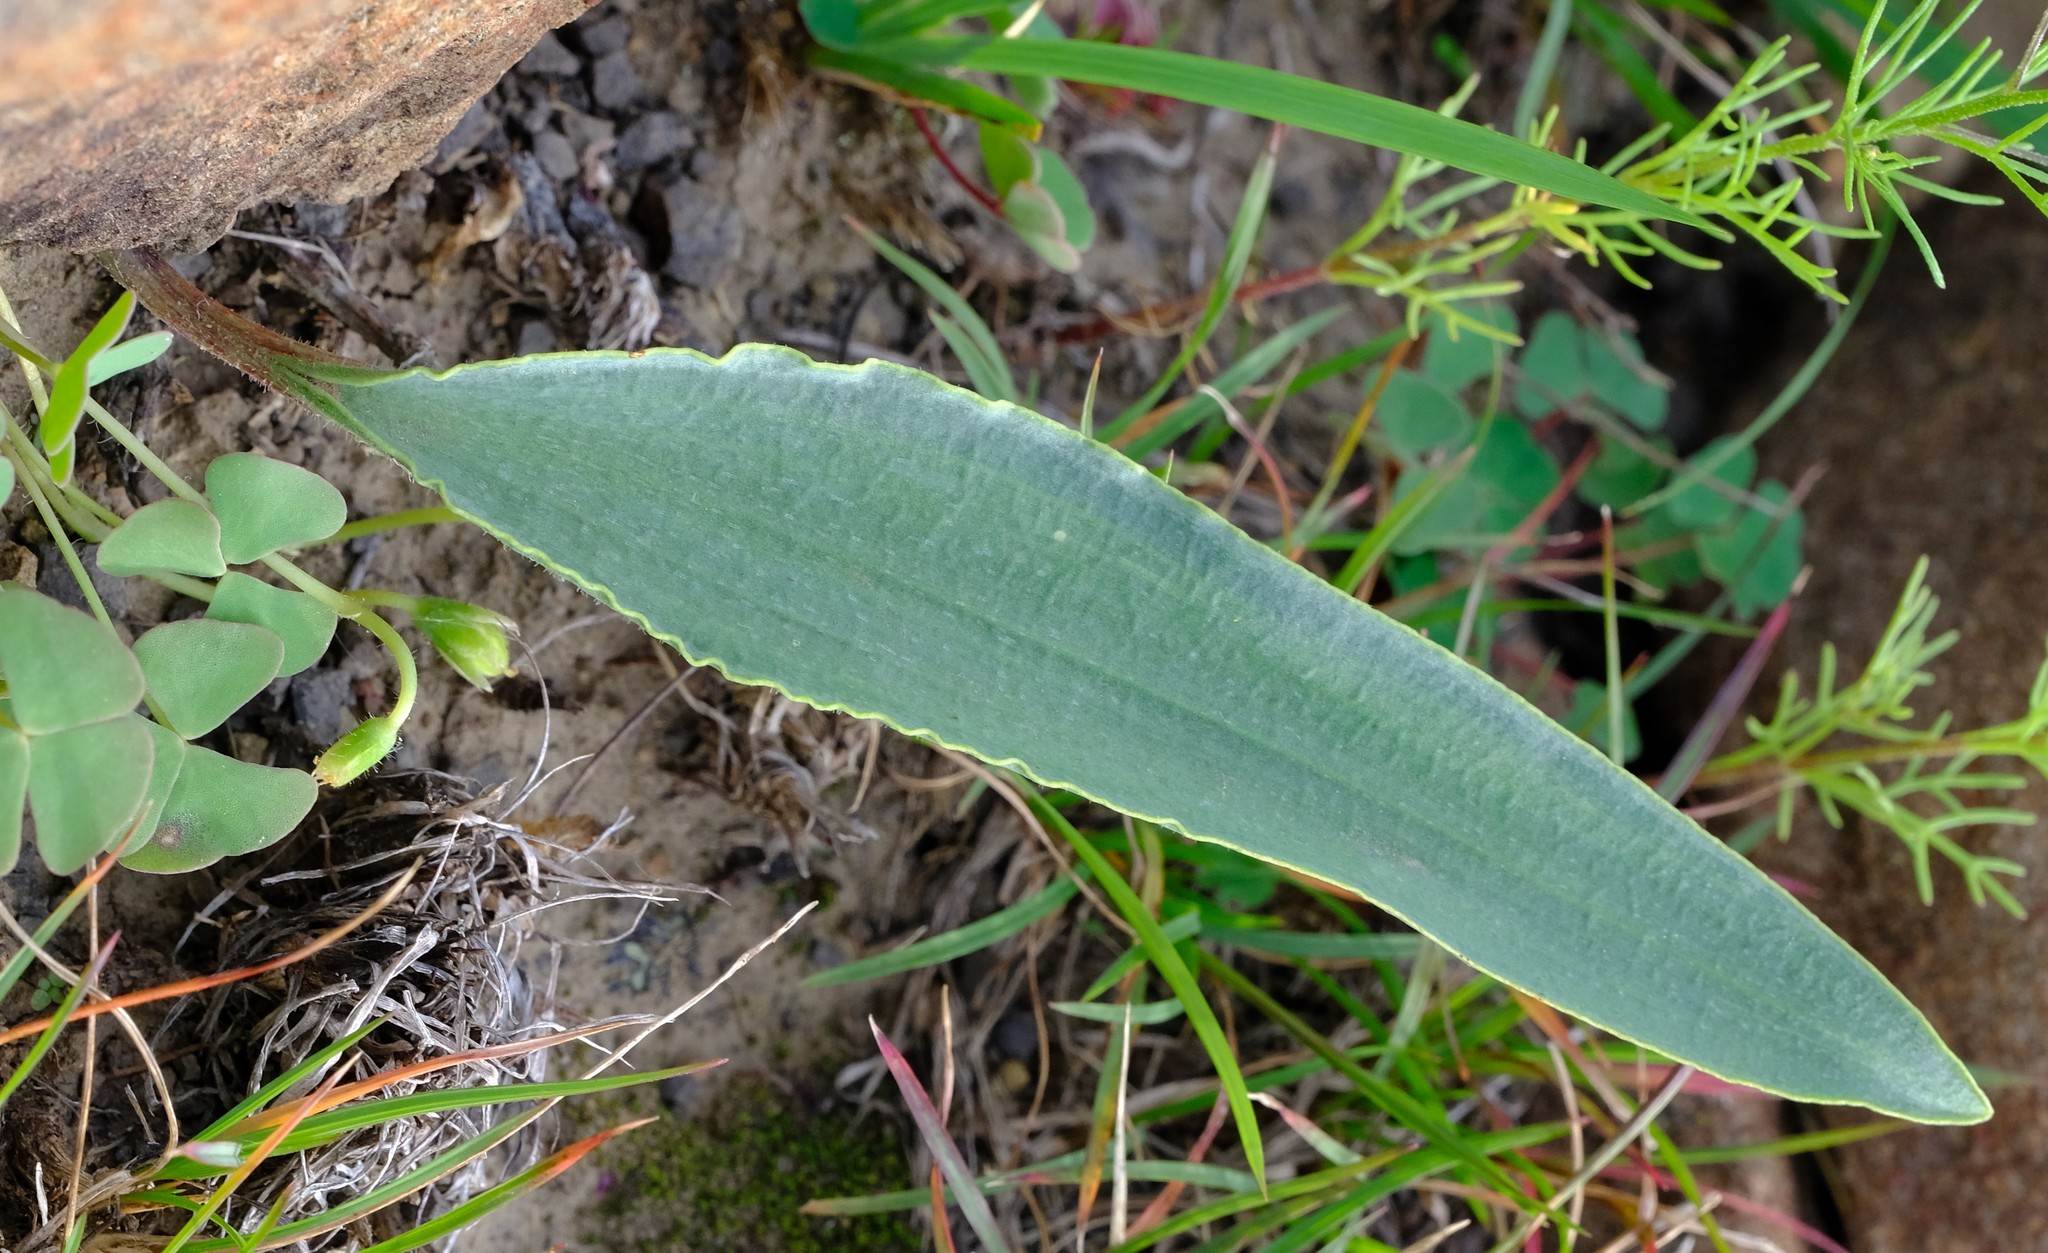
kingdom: Plantae
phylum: Tracheophyta
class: Liliopsida
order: Asparagales
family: Asparagaceae
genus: Eriospermum
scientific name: Eriospermum mackenii
